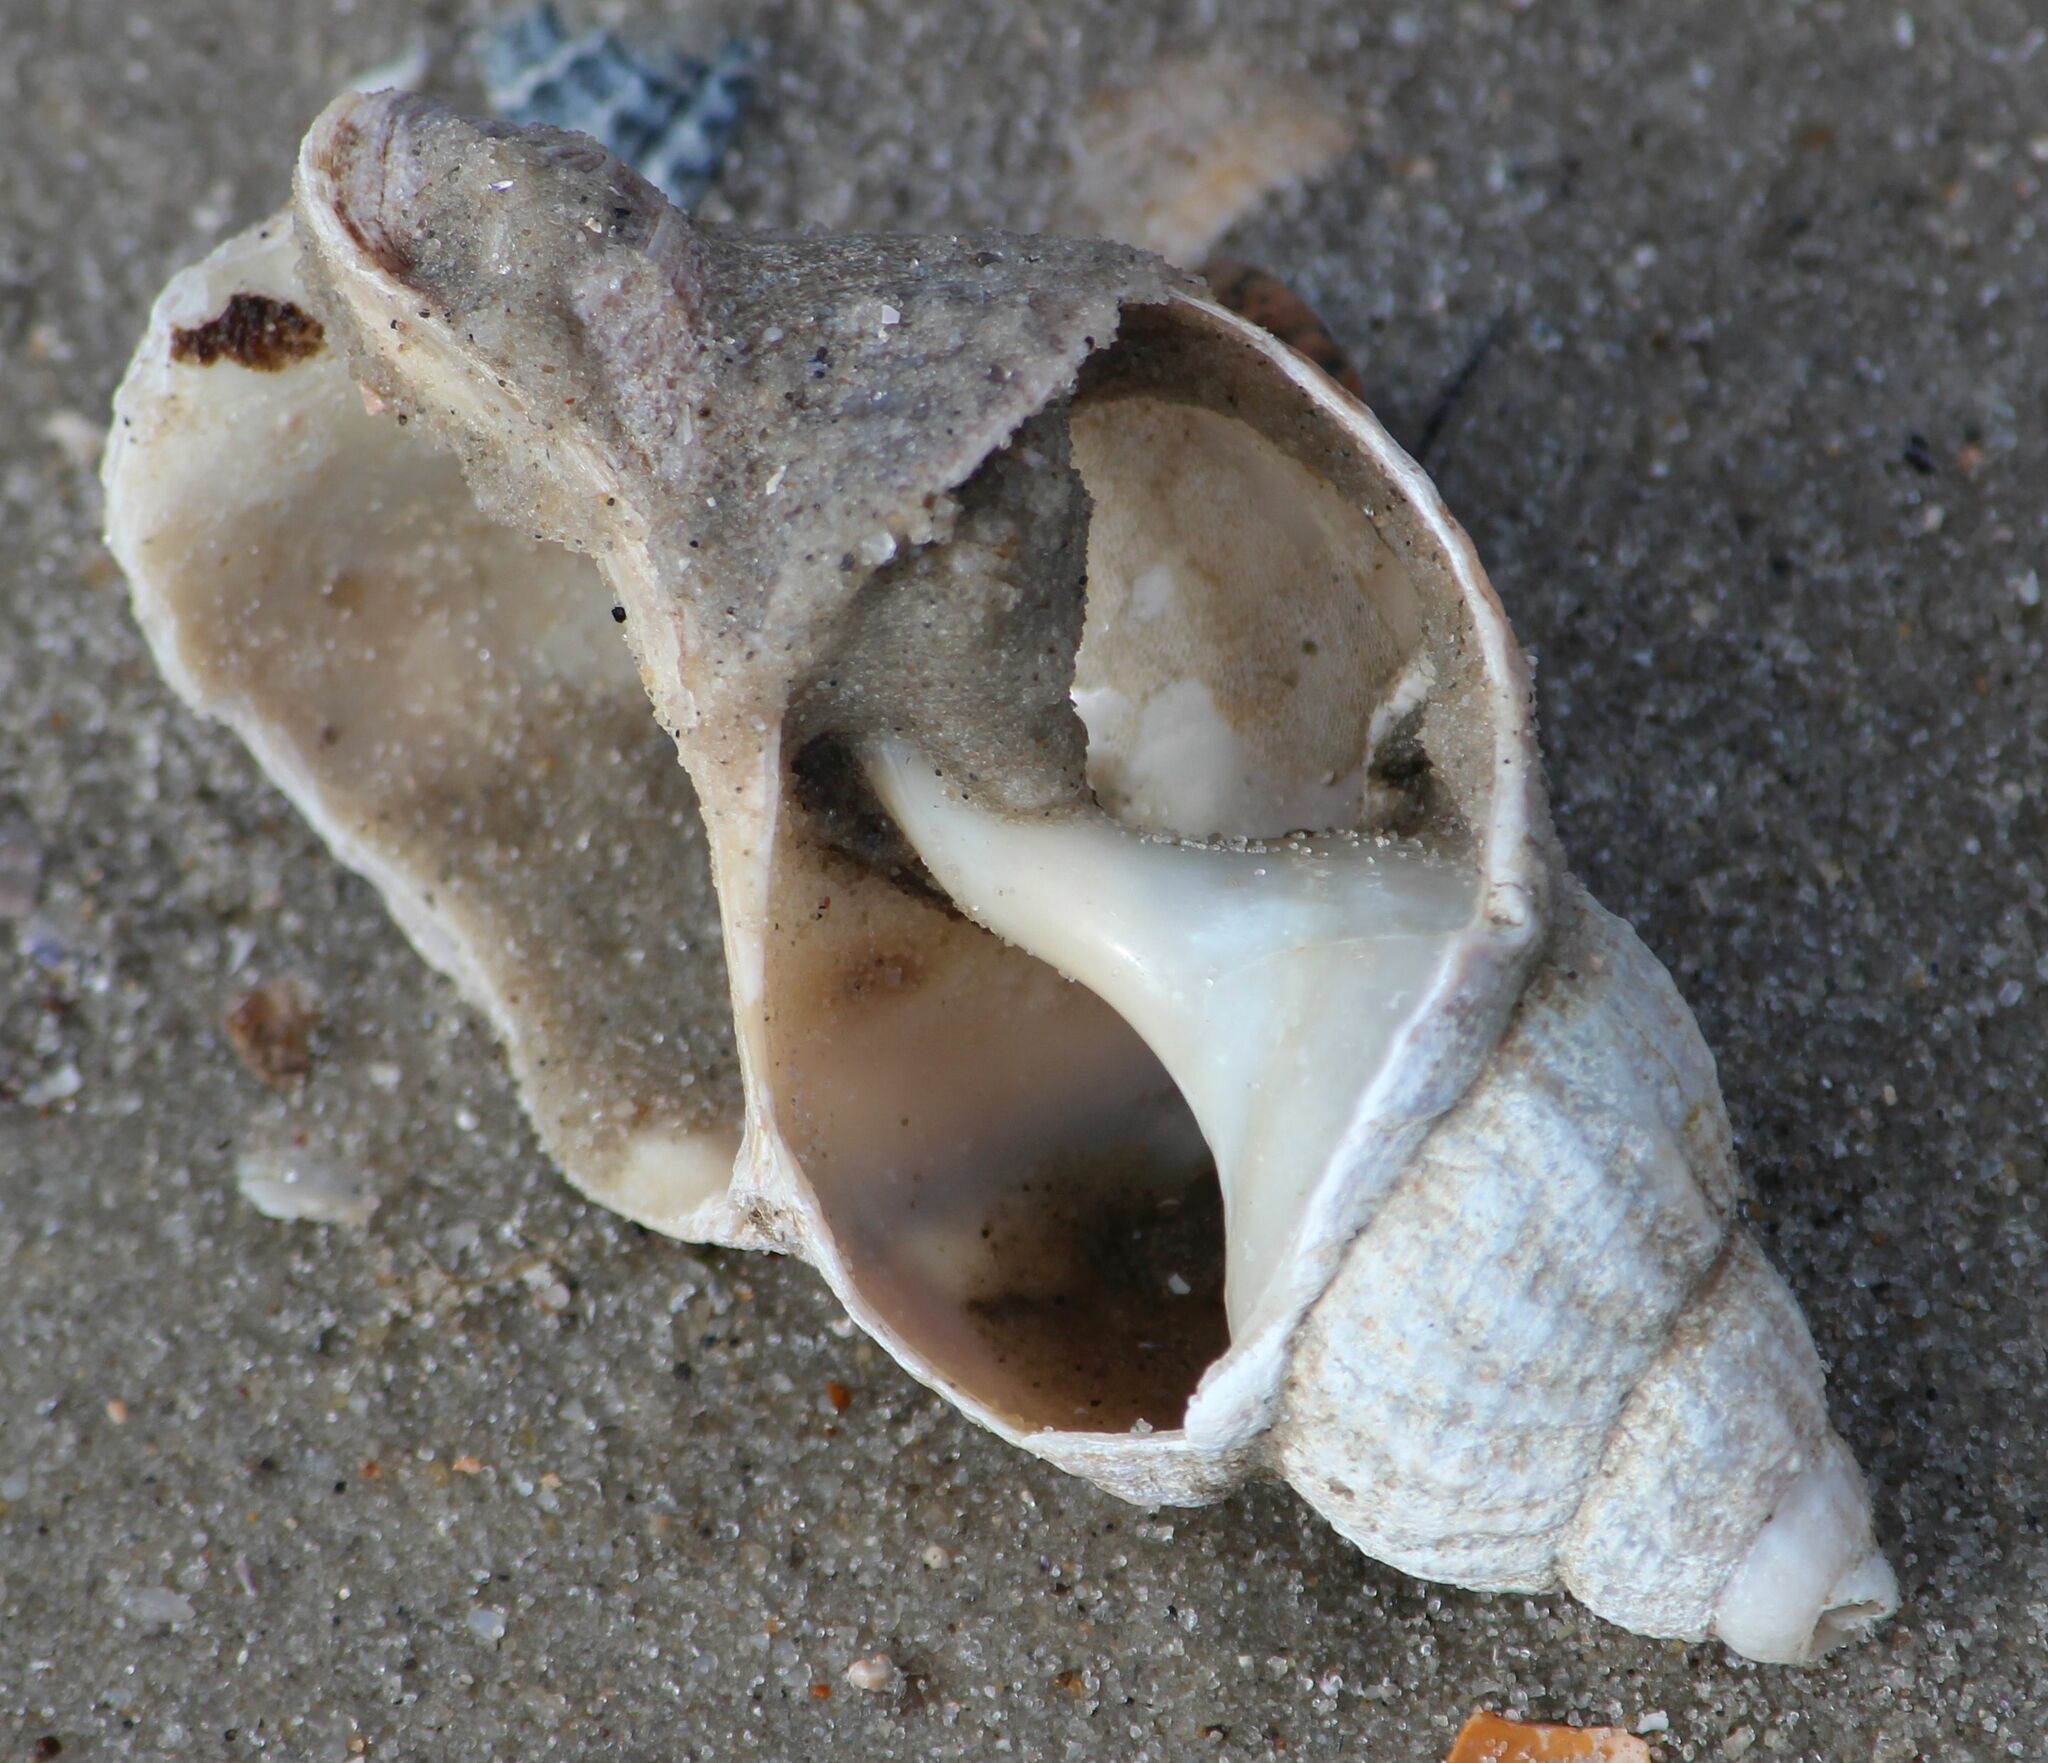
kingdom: Animalia
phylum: Mollusca
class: Gastropoda
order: Neogastropoda
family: Buccinidae
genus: Buccinum
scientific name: Buccinum undatum
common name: Common whelk
